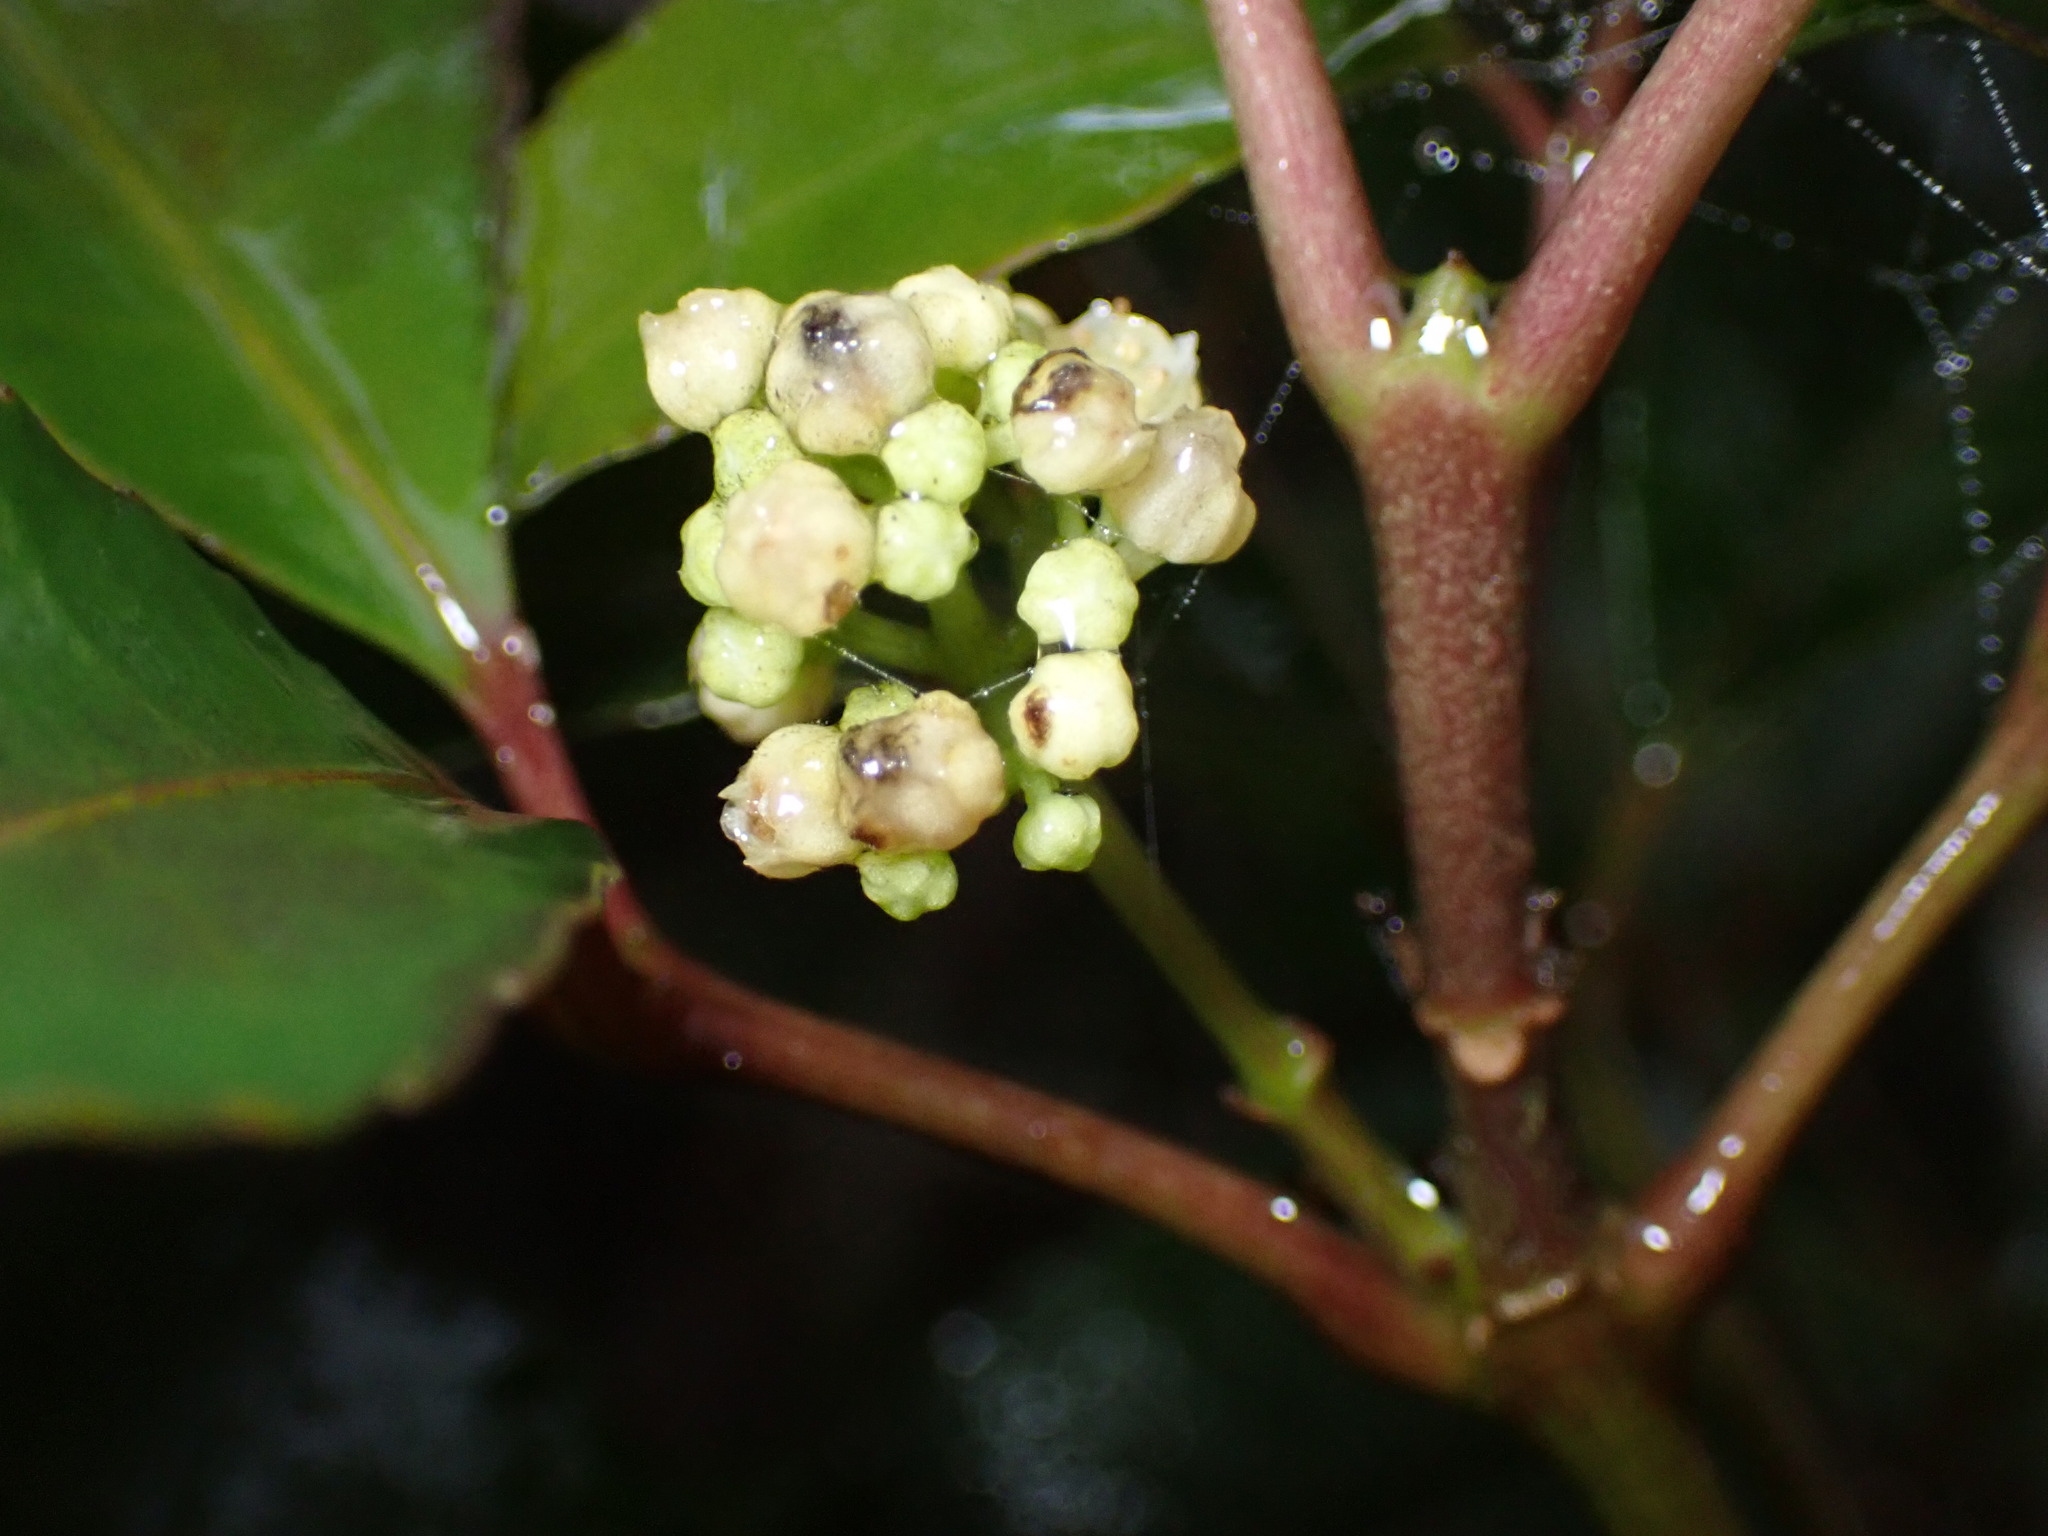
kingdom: Plantae
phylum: Tracheophyta
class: Magnoliopsida
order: Crossosomatales
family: Staphyleaceae
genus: Turpinia
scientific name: Turpinia montana
